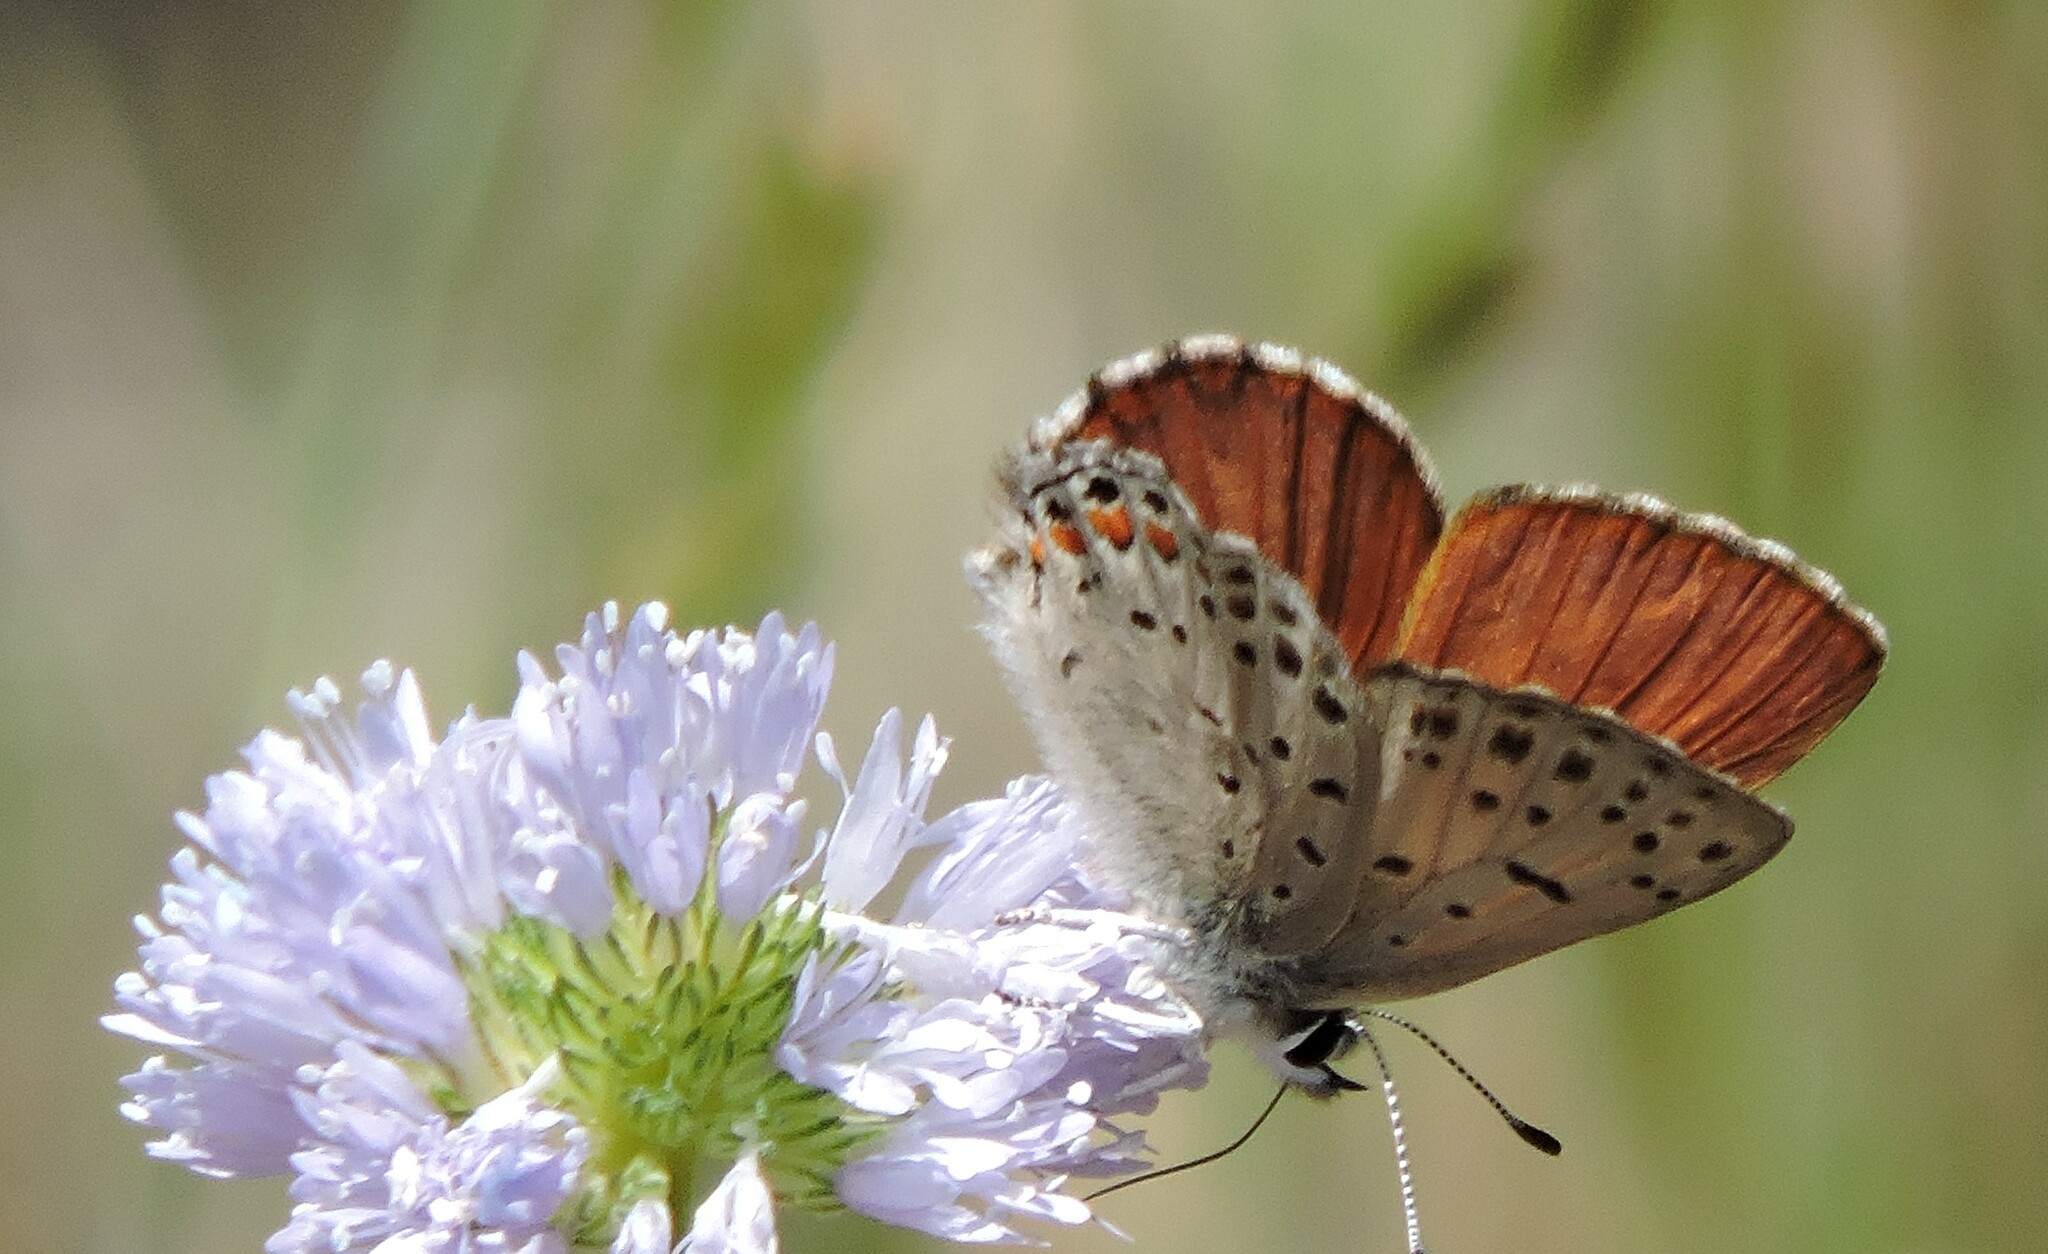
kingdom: Animalia
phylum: Arthropoda
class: Insecta
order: Lepidoptera
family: Lycaenidae
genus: Tharsalea
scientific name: Tharsalea gorgon
